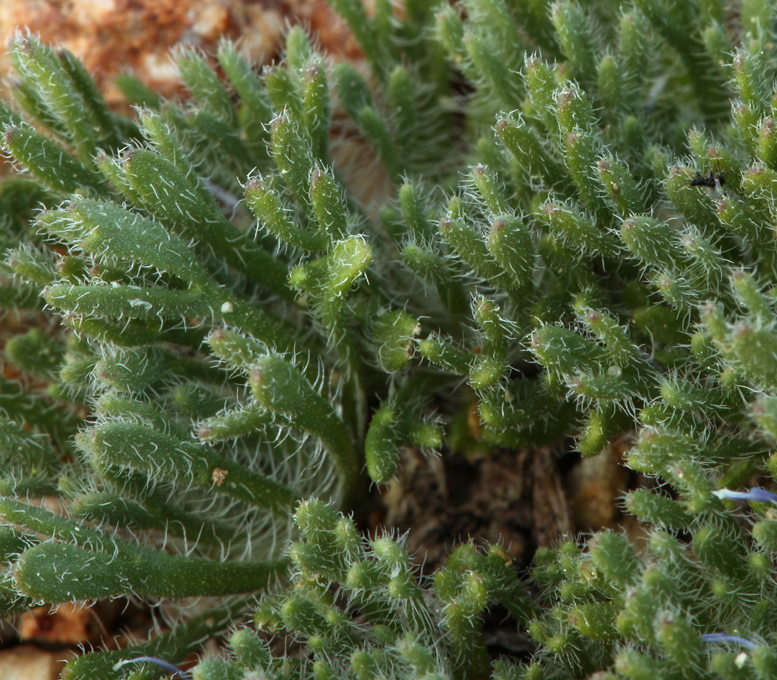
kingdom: Plantae
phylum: Tracheophyta
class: Magnoliopsida
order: Asterales
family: Asteraceae
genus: Erigeron
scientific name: Erigeron compositus
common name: Dwarf mountain fleabane
